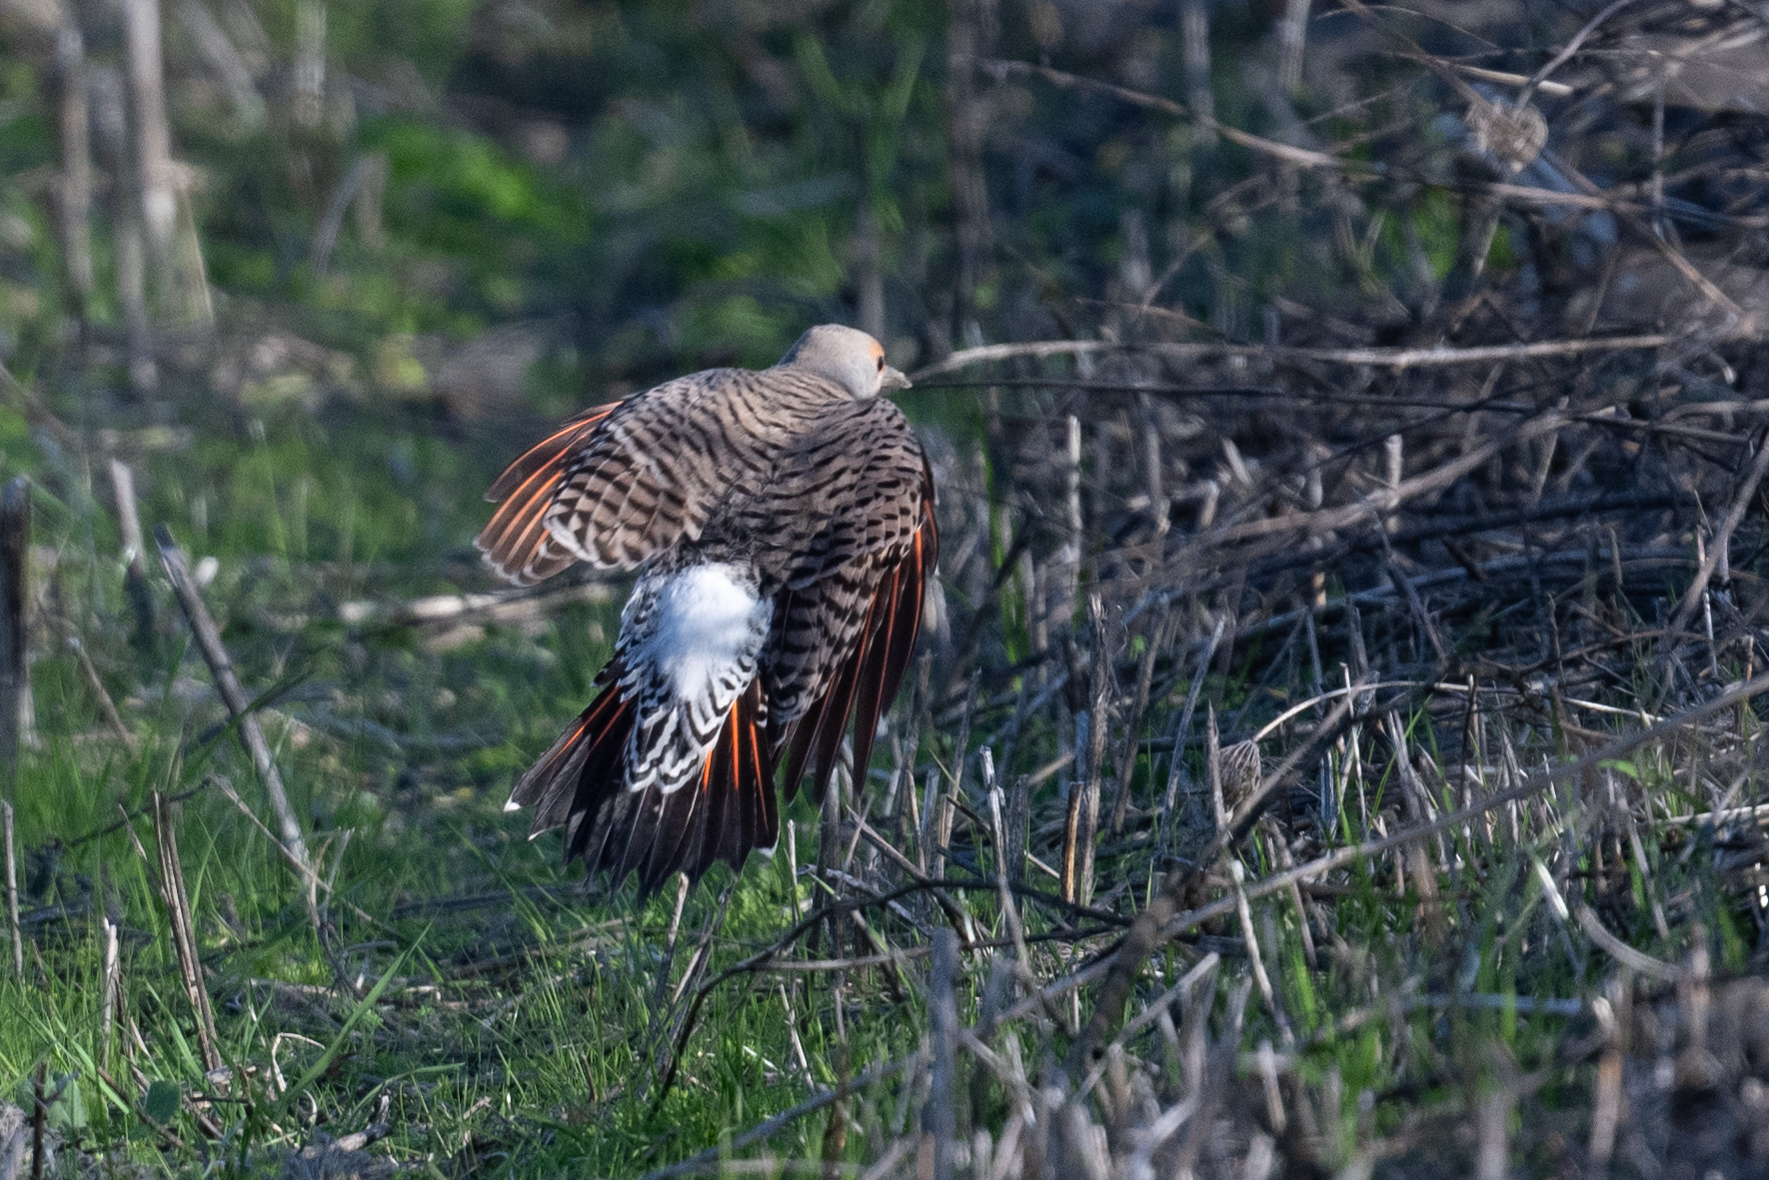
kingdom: Animalia
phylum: Chordata
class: Aves
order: Piciformes
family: Picidae
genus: Colaptes
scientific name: Colaptes auratus
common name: Northern flicker
